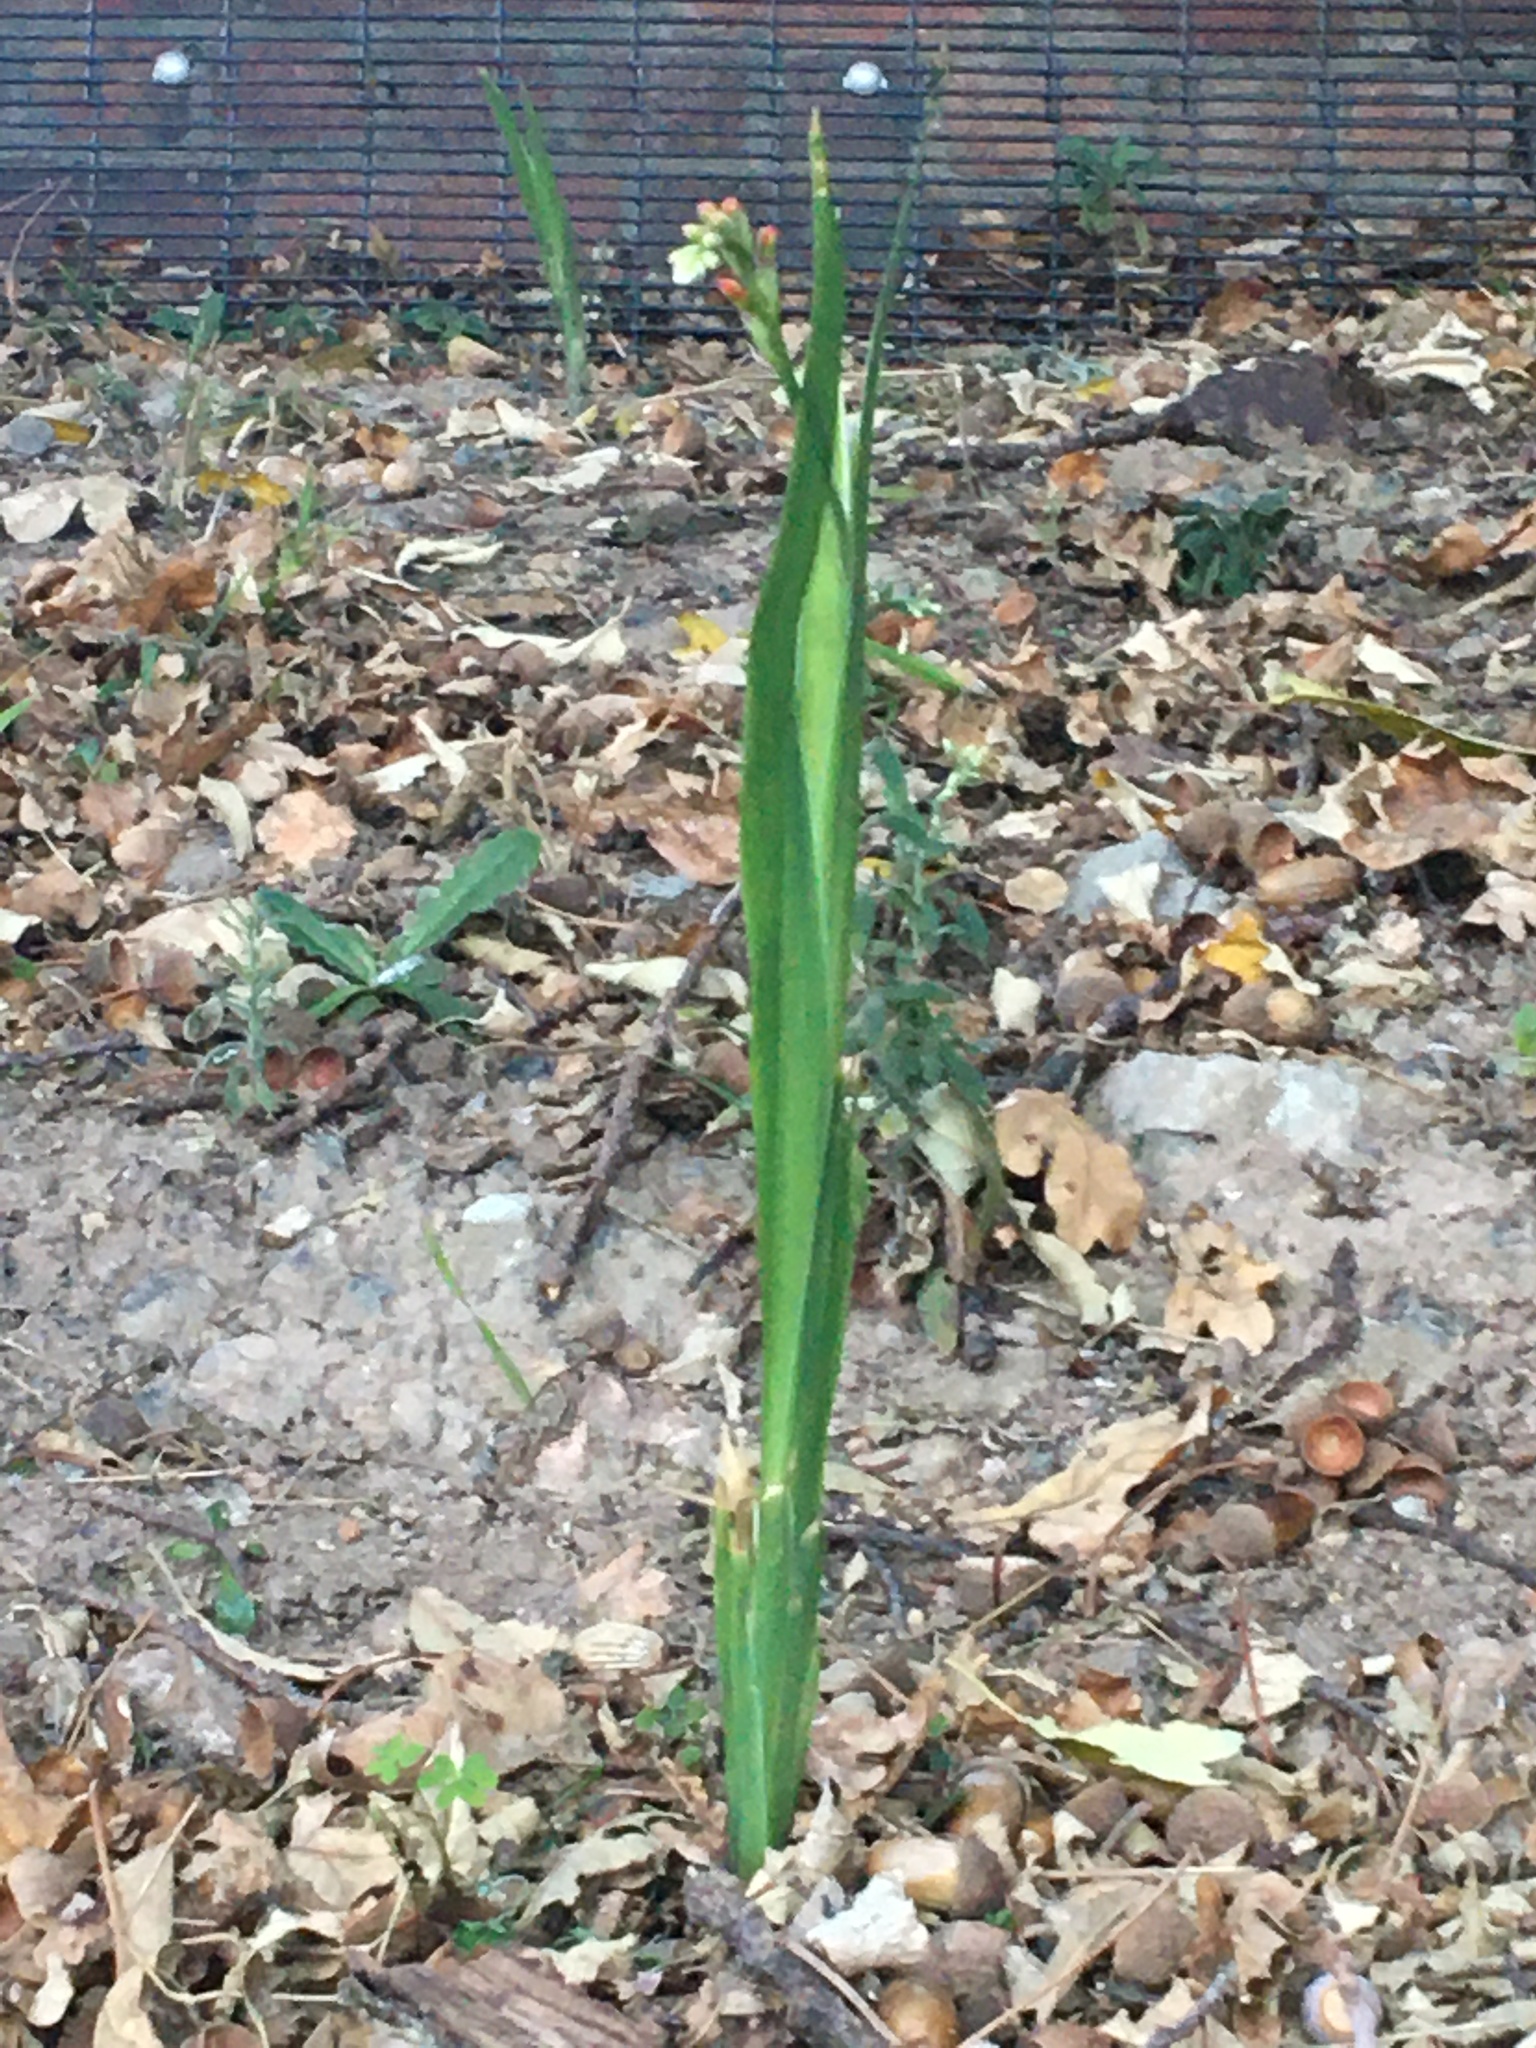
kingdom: Plantae
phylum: Tracheophyta
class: Liliopsida
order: Asparagales
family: Iridaceae
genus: Chasmanthe
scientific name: Chasmanthe aethiopica
